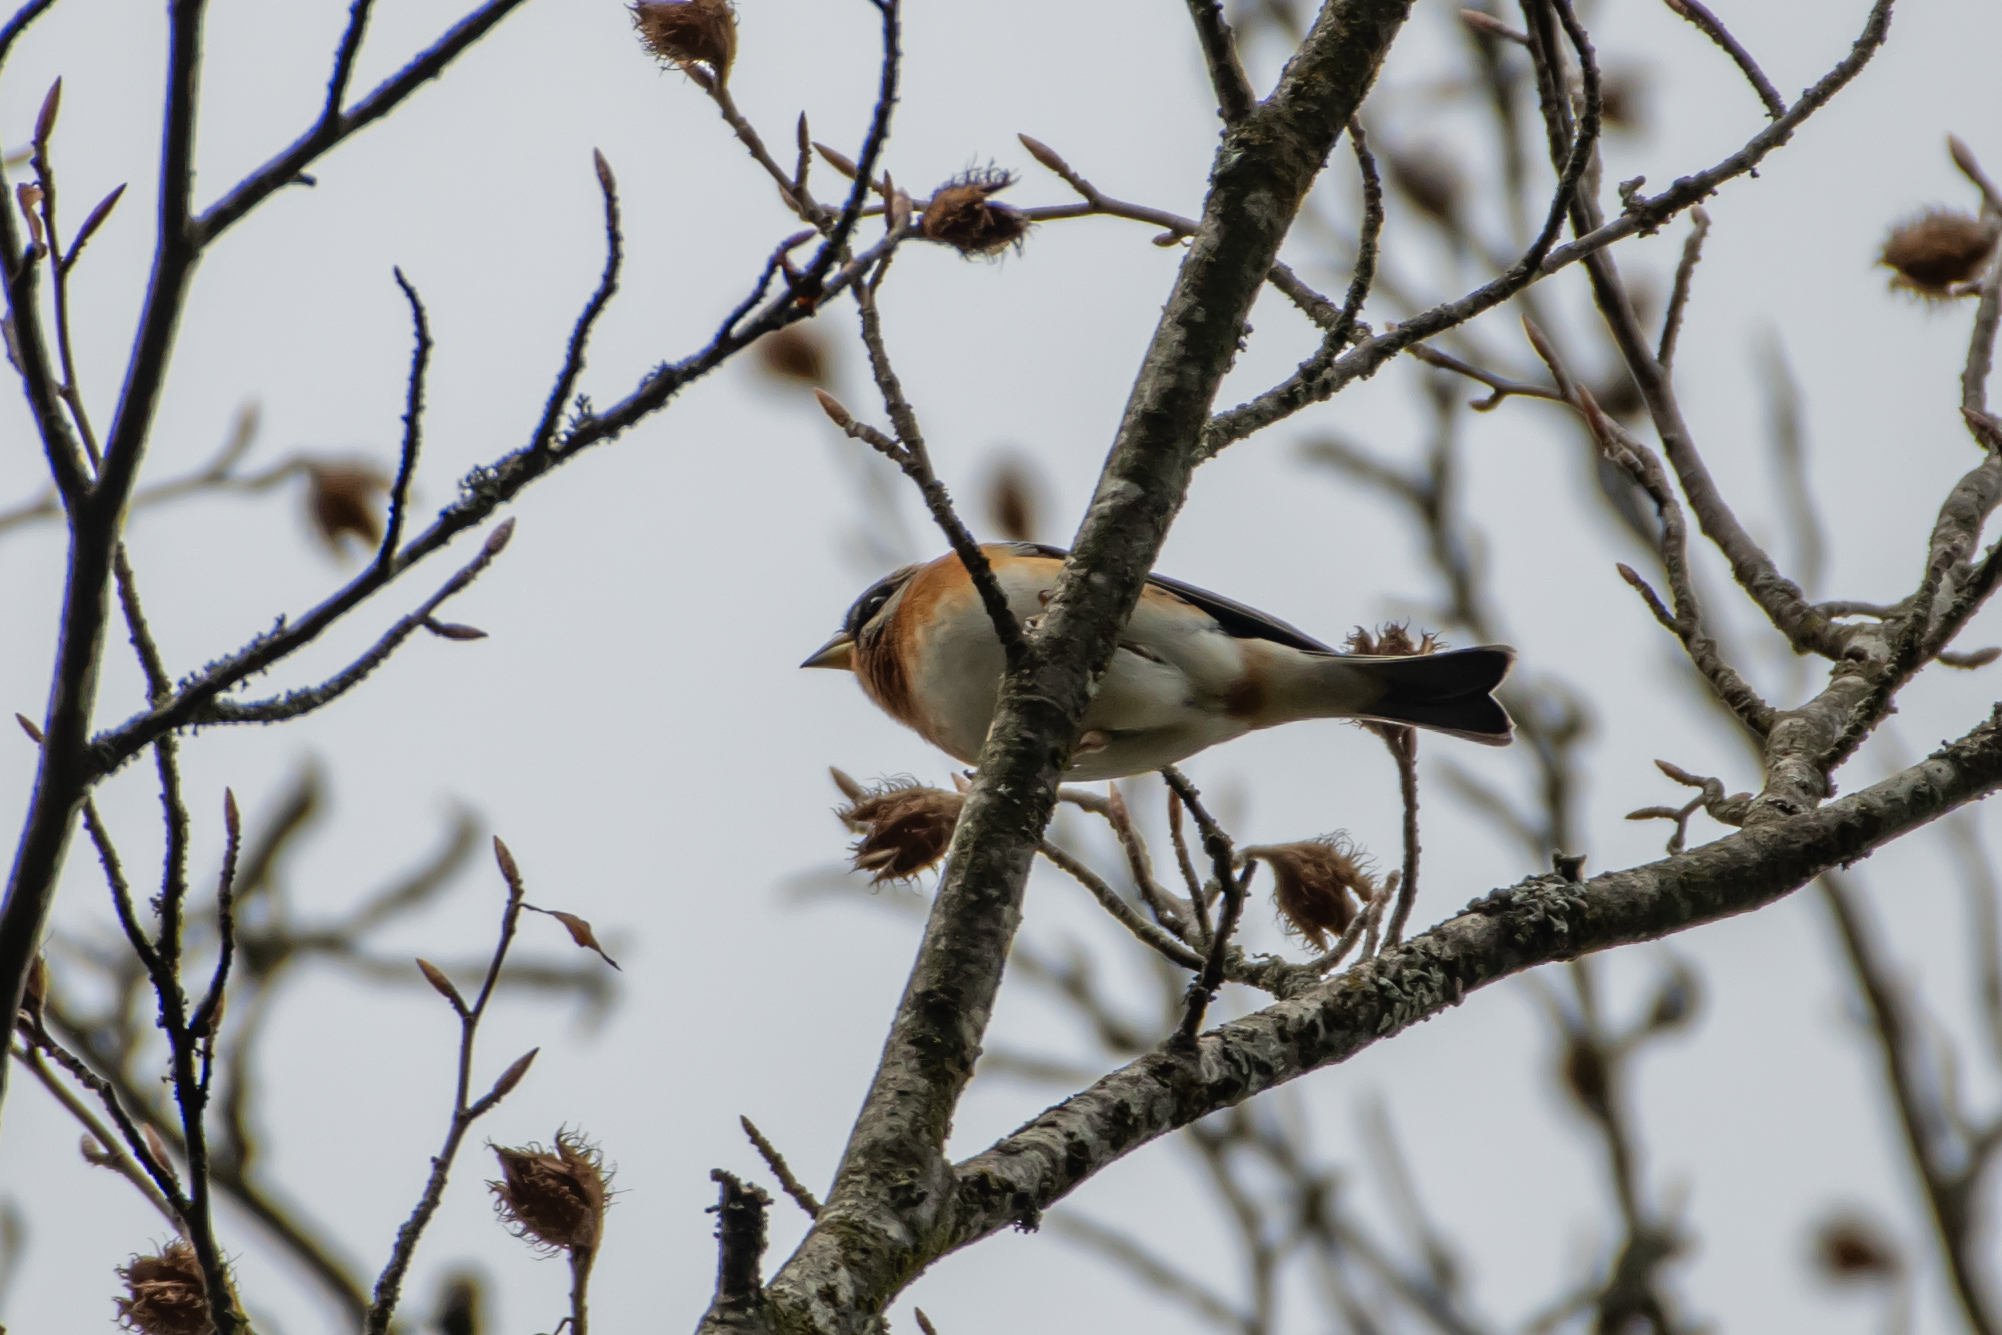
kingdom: Animalia
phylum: Chordata
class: Aves
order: Passeriformes
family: Fringillidae
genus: Fringilla
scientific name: Fringilla montifringilla
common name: Brambling
